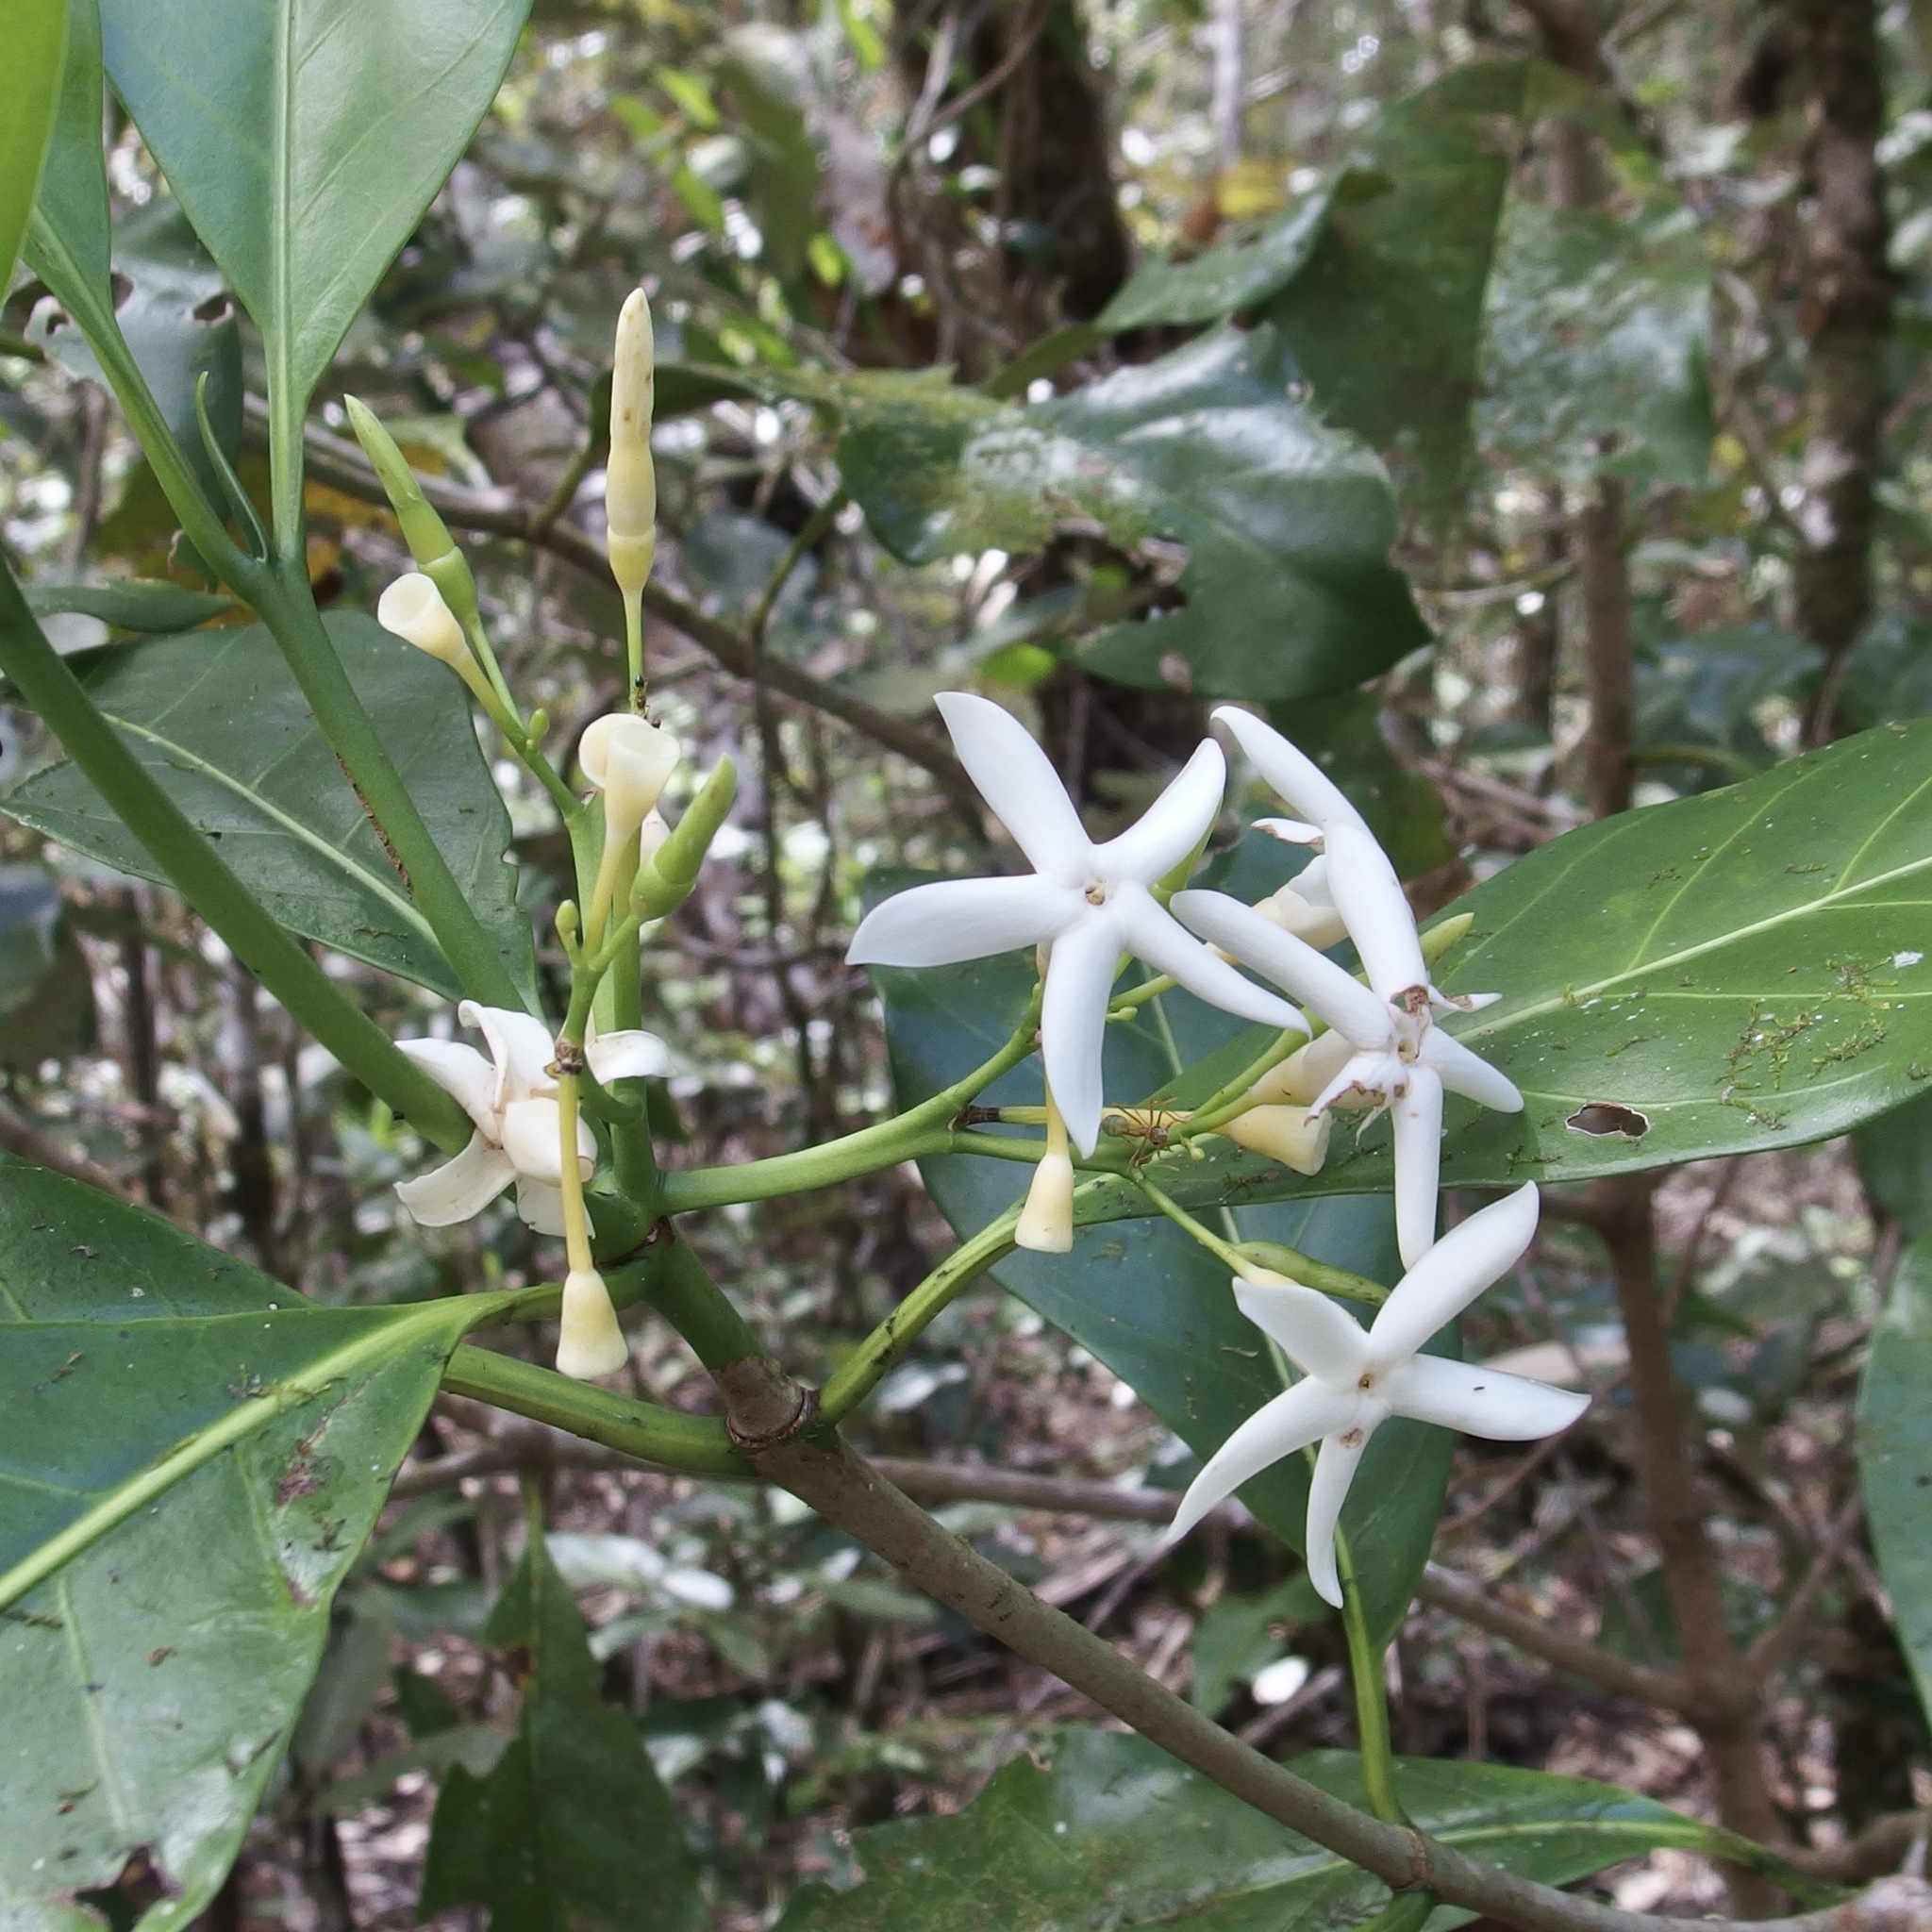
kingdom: Plantae
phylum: Tracheophyta
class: Magnoliopsida
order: Gentianales
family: Rubiaceae
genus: Atractocarpus
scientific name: Atractocarpus fitzalanii
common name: Randia
